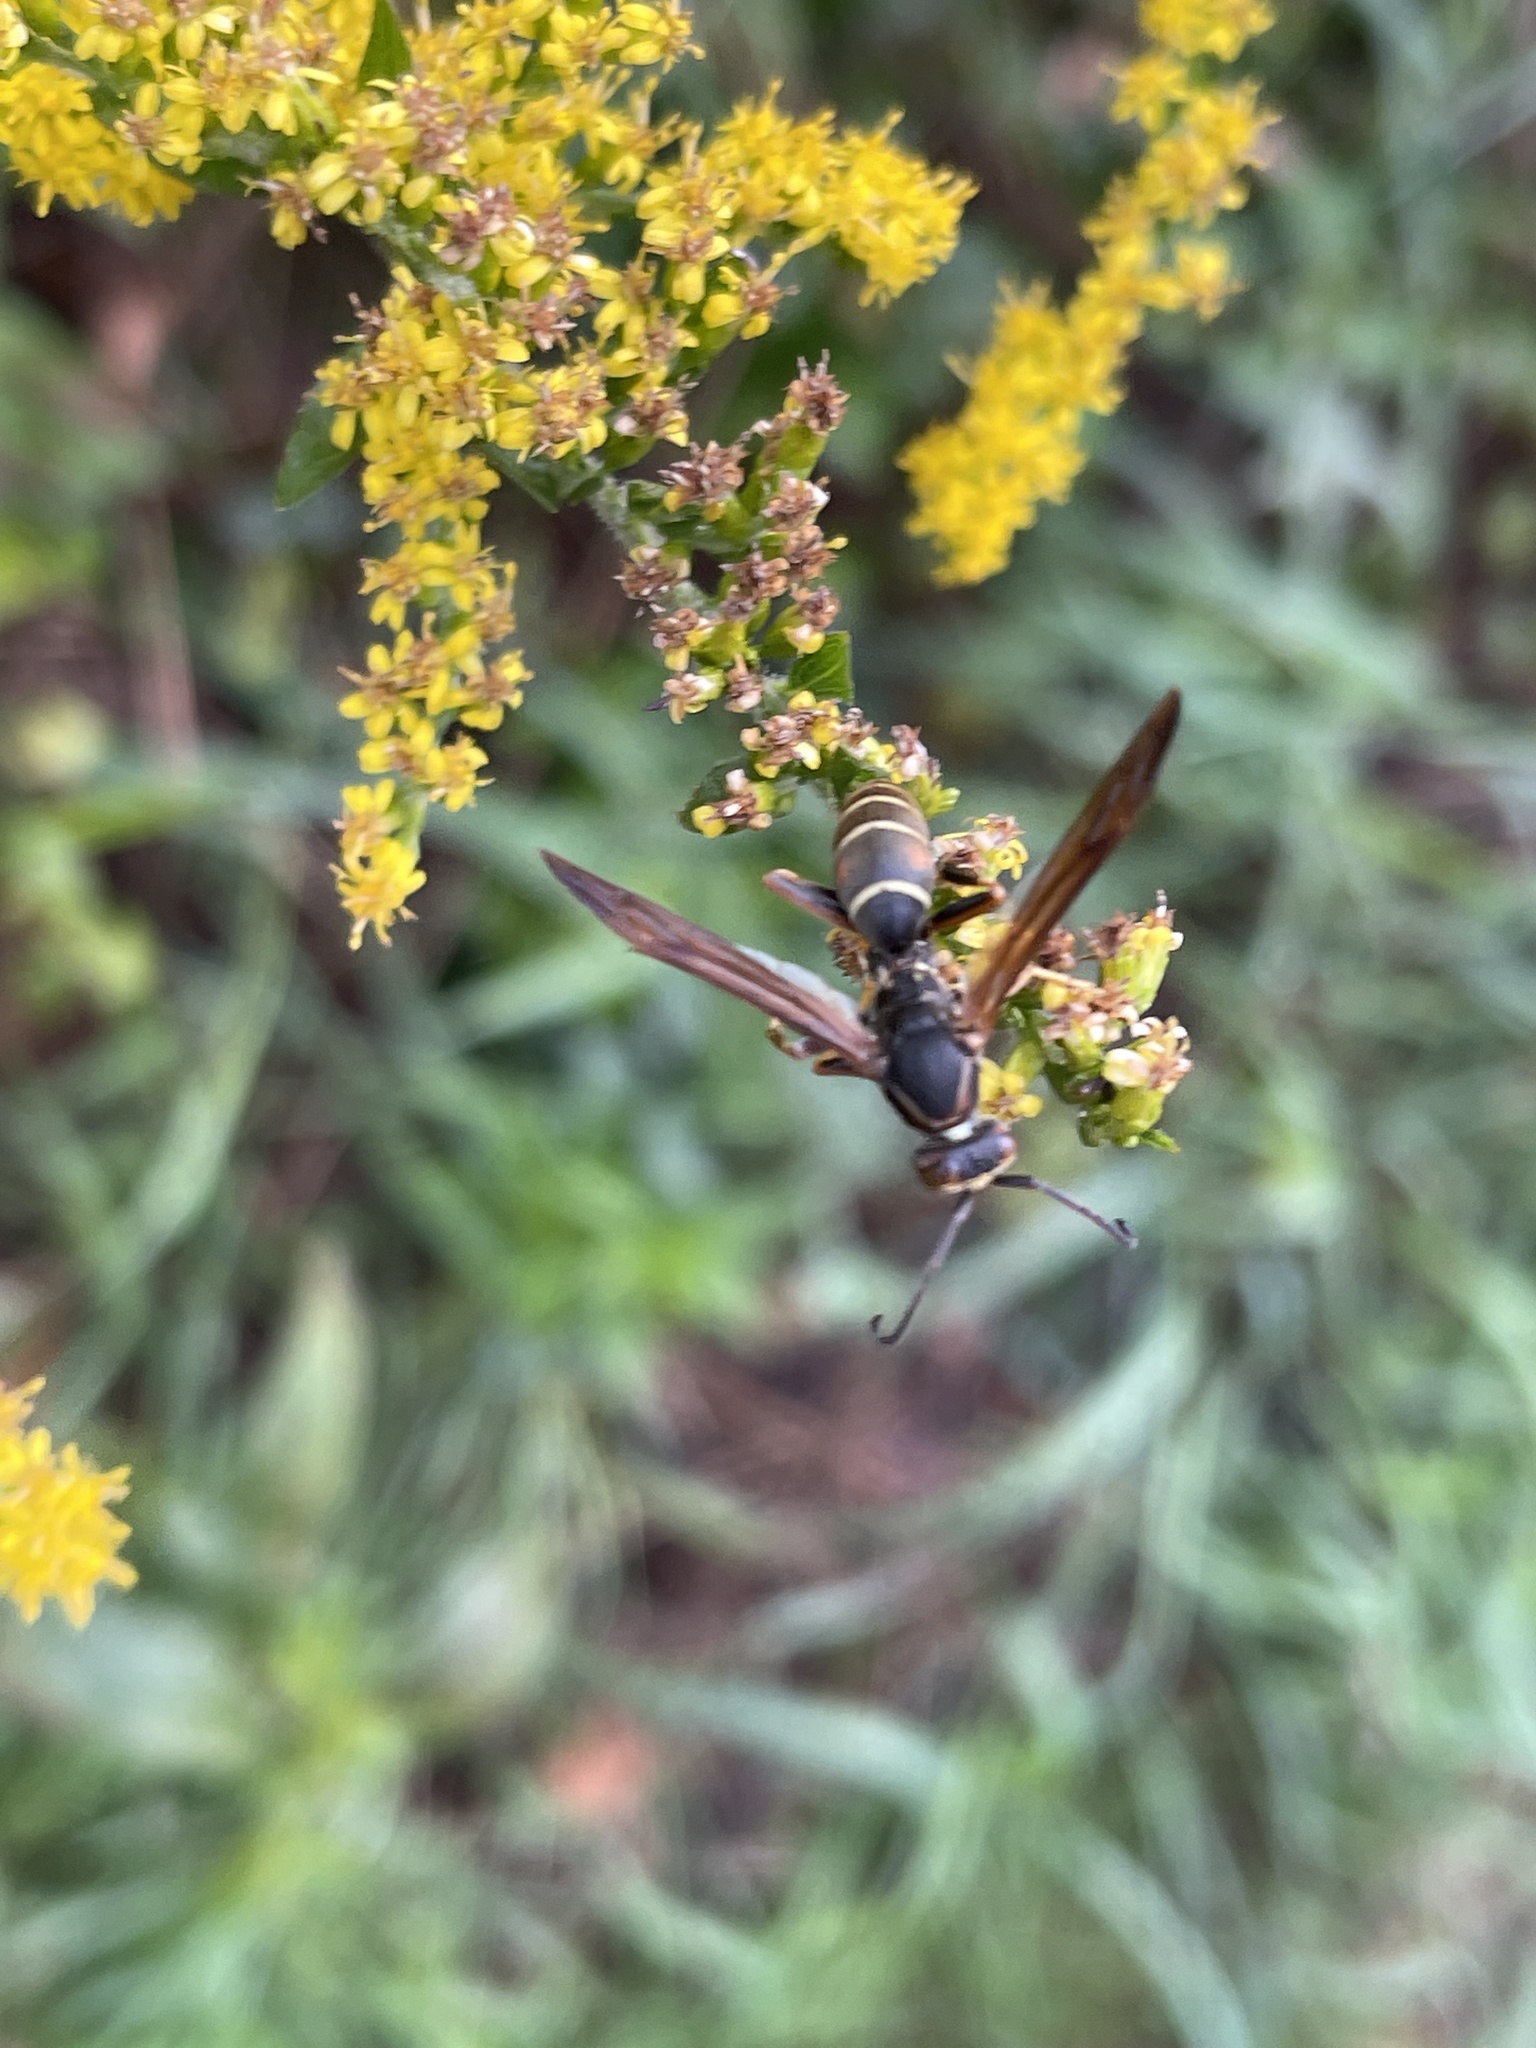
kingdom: Animalia
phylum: Arthropoda
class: Insecta
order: Hymenoptera
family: Eumenidae
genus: Polistes
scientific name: Polistes fuscatus
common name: Dark paper wasp
